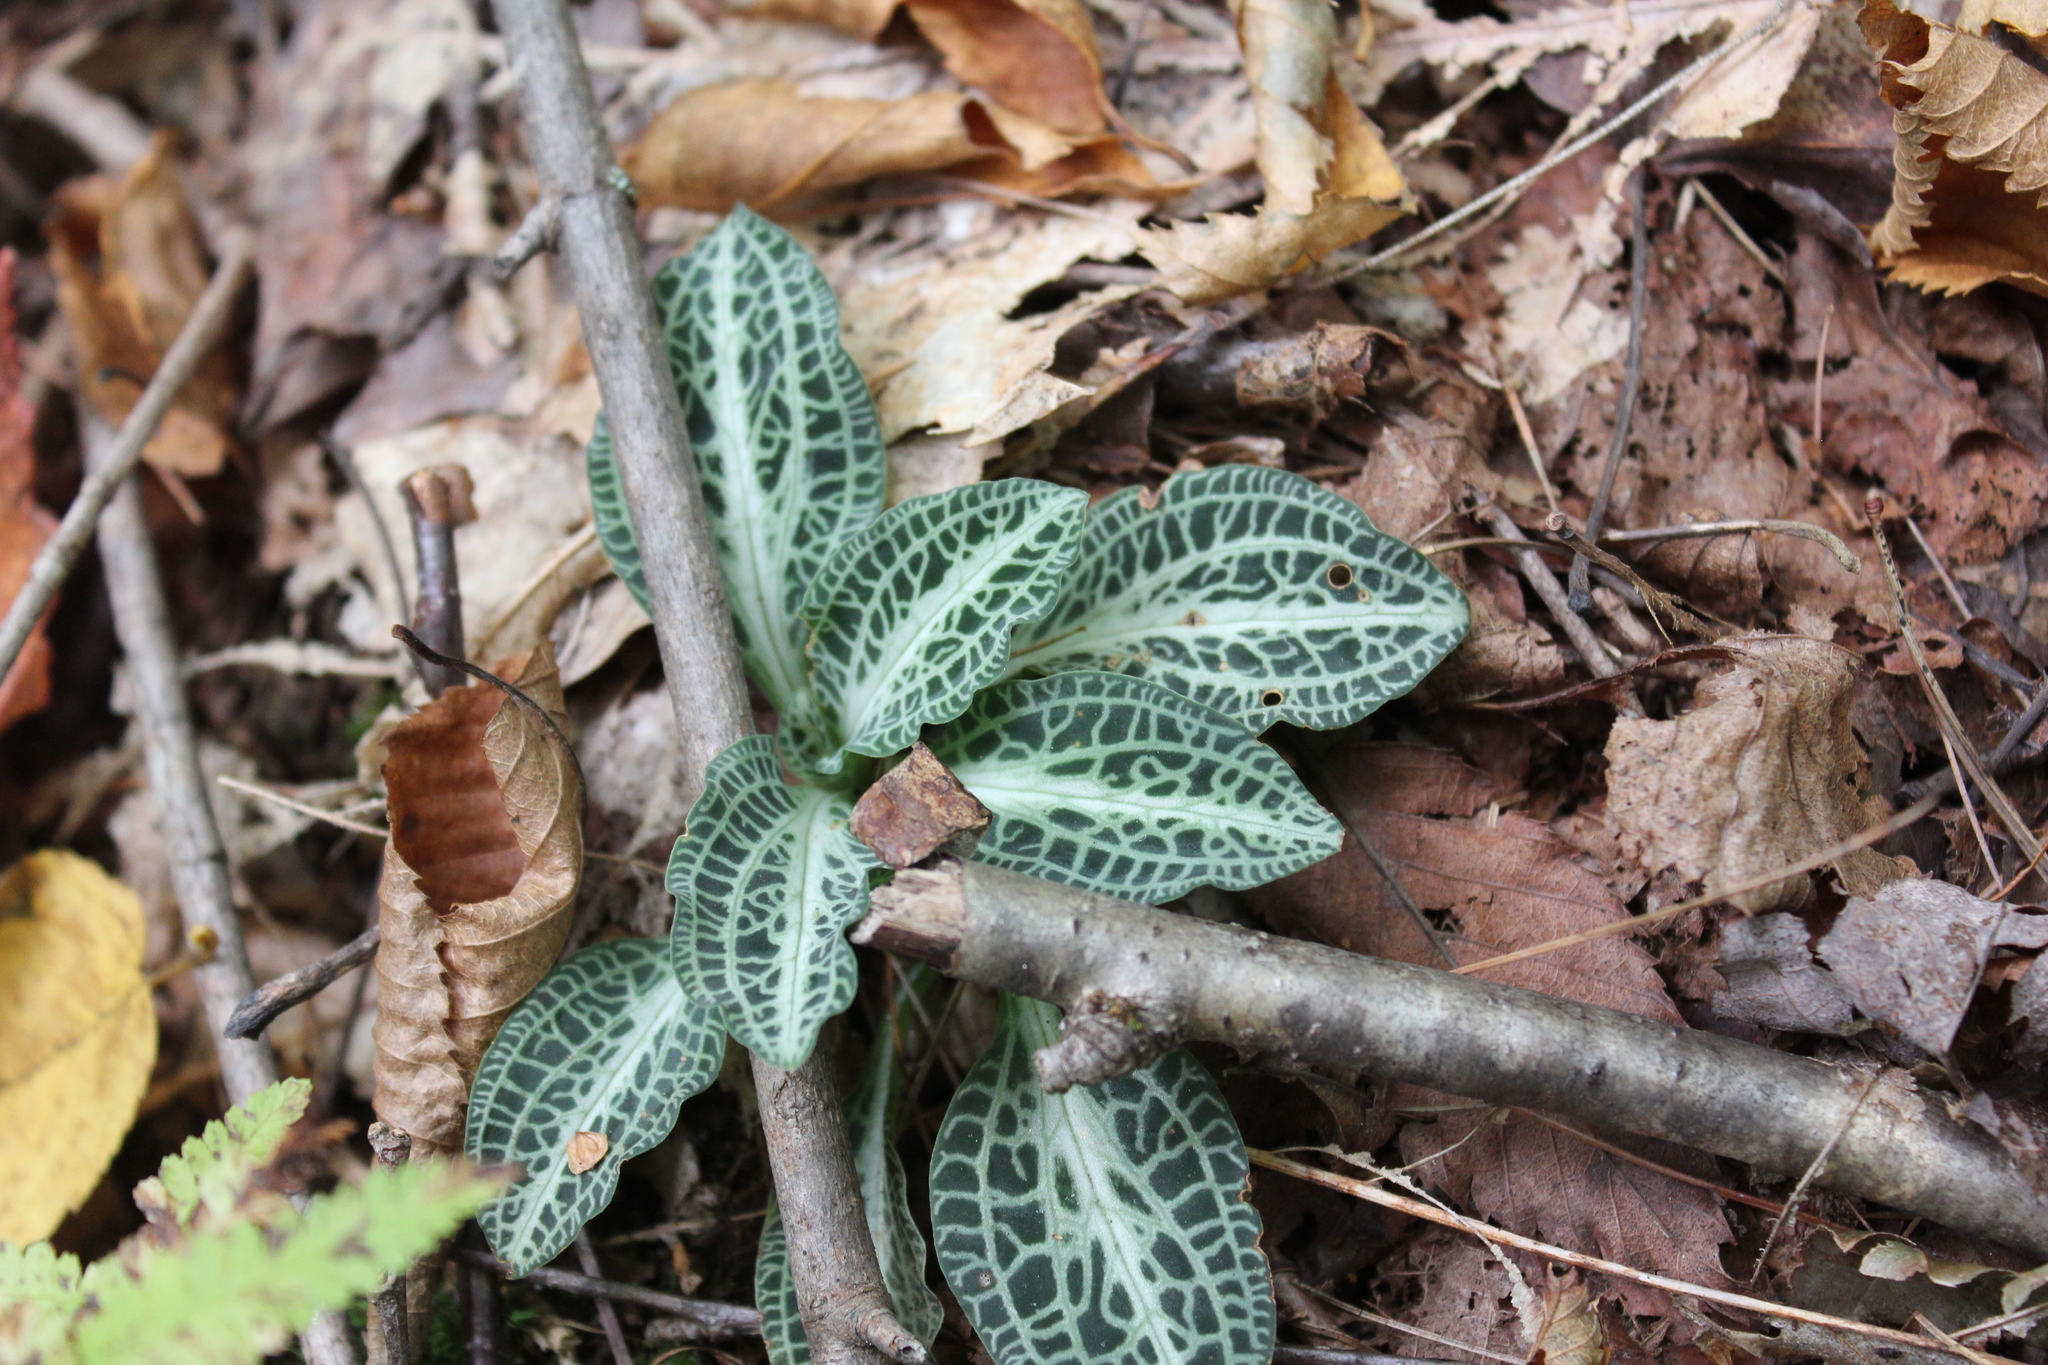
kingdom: Plantae
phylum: Tracheophyta
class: Liliopsida
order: Asparagales
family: Orchidaceae
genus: Goodyera
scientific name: Goodyera pubescens
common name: Downy rattlesnake-plantain
